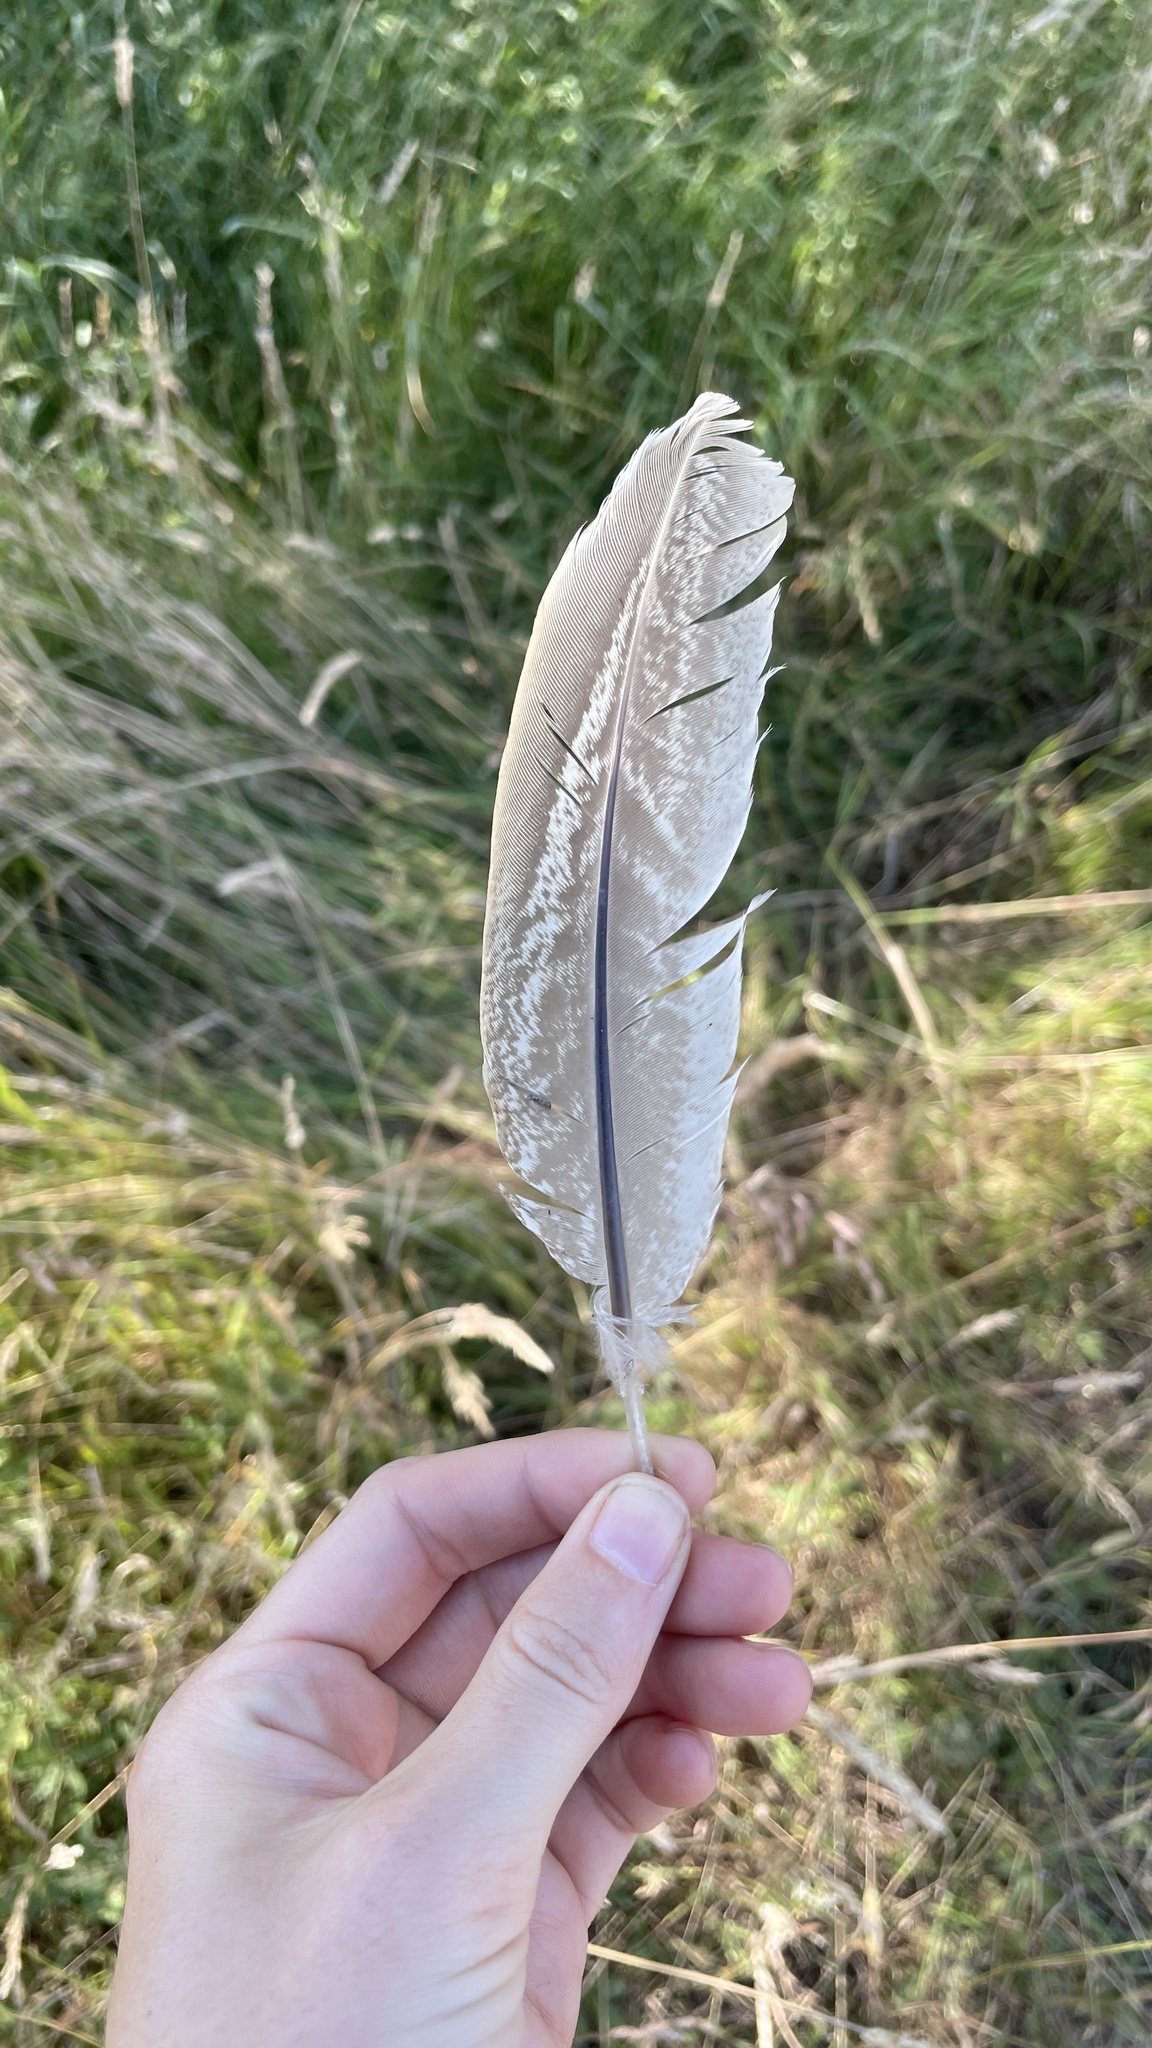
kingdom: Animalia
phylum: Chordata
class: Aves
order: Galliformes
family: Phasianidae
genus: Phasianus
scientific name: Phasianus colchicus
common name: Common pheasant
